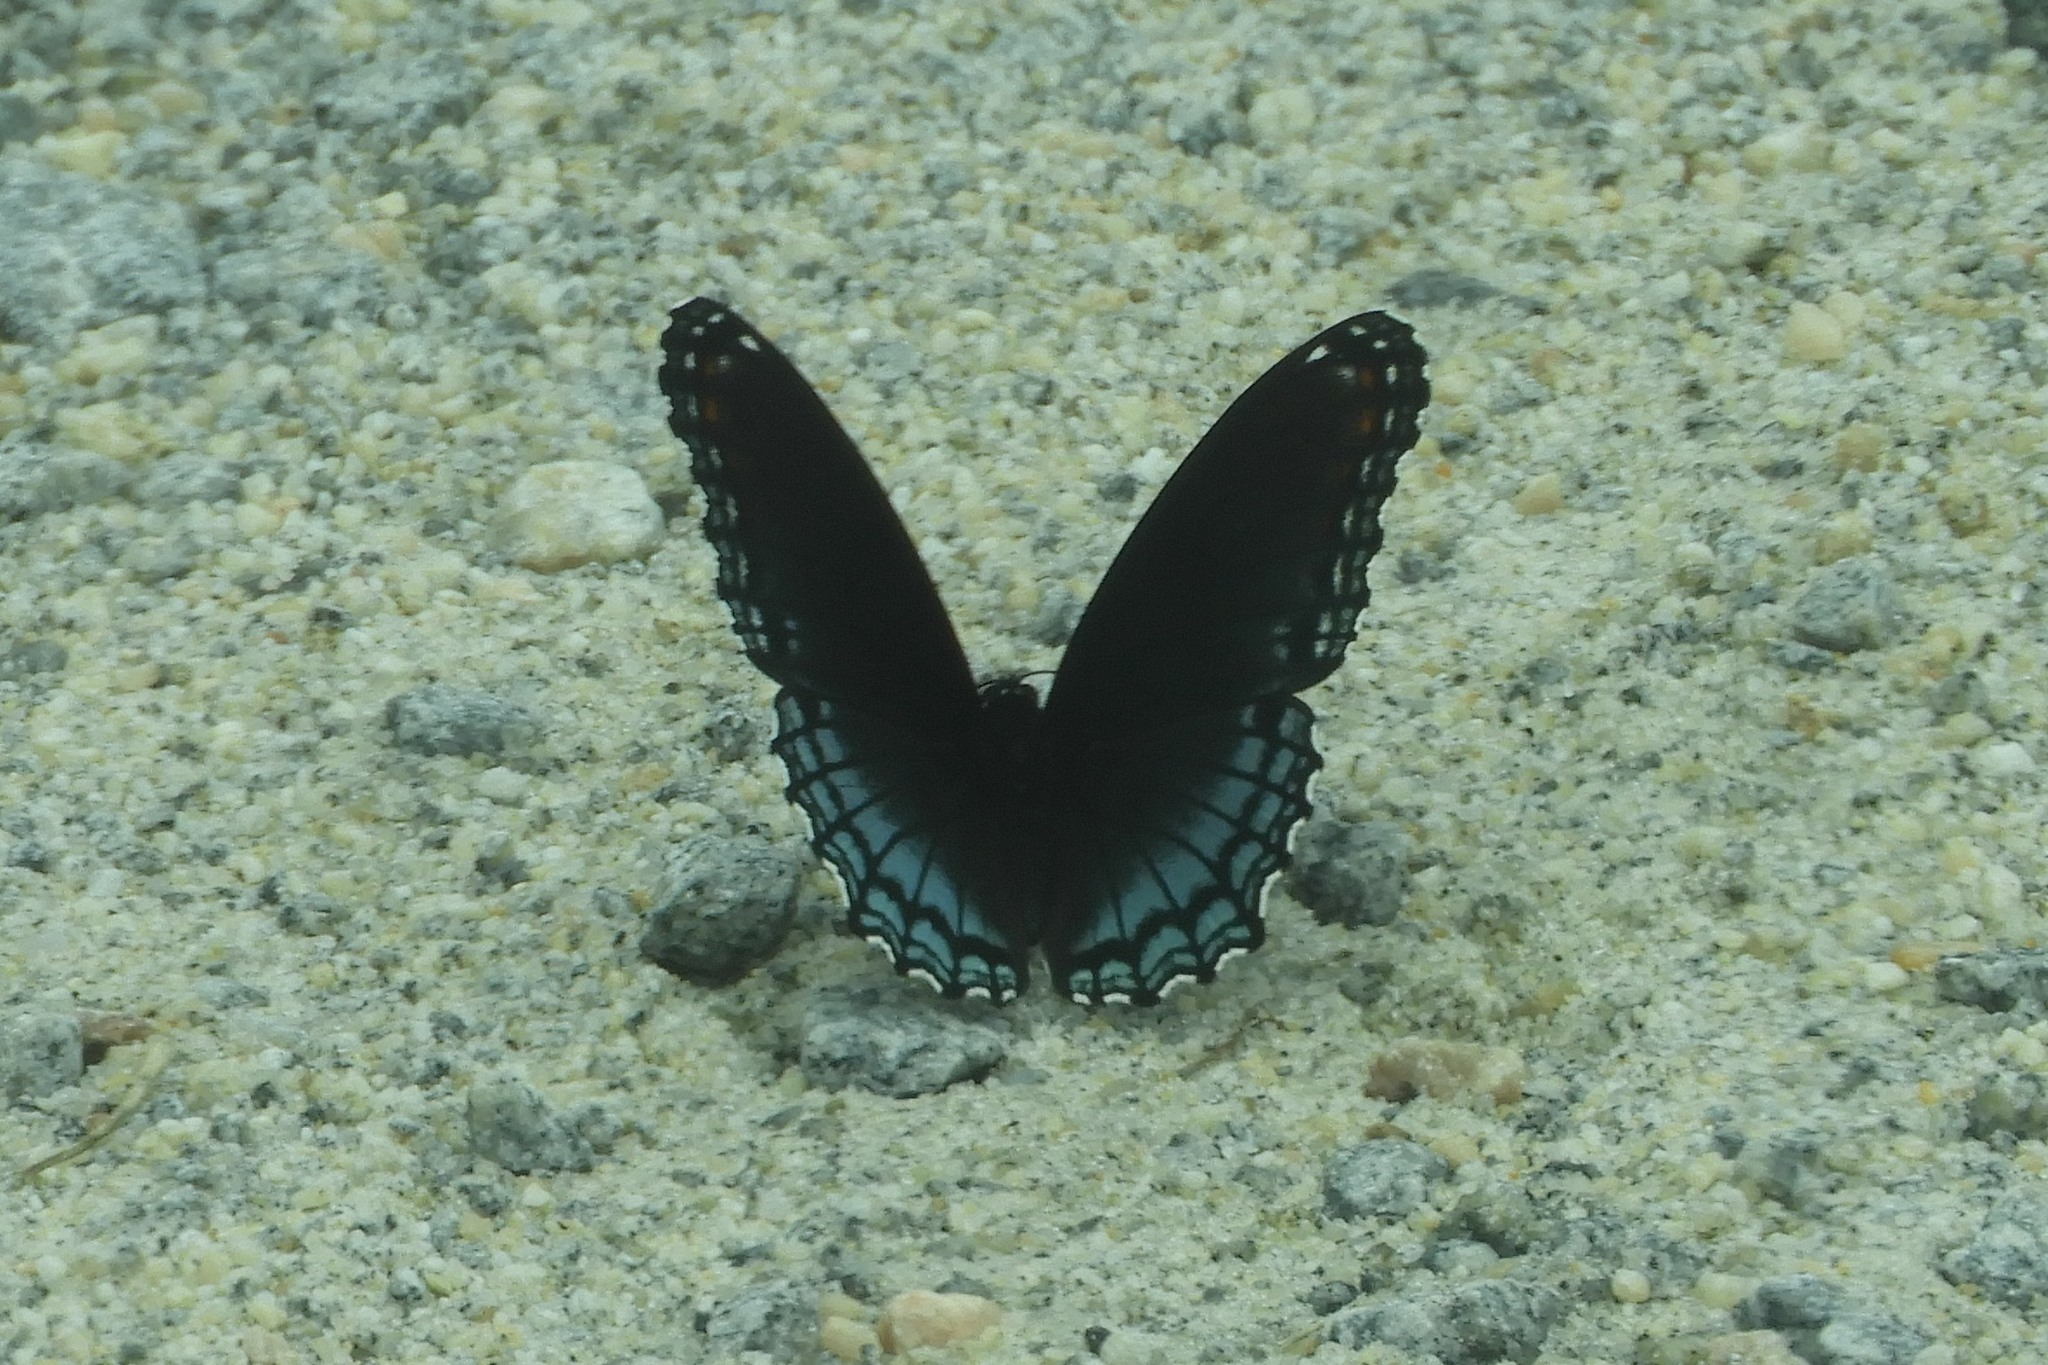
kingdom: Animalia
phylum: Arthropoda
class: Insecta
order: Lepidoptera
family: Nymphalidae
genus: Limenitis
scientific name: Limenitis astyanax
